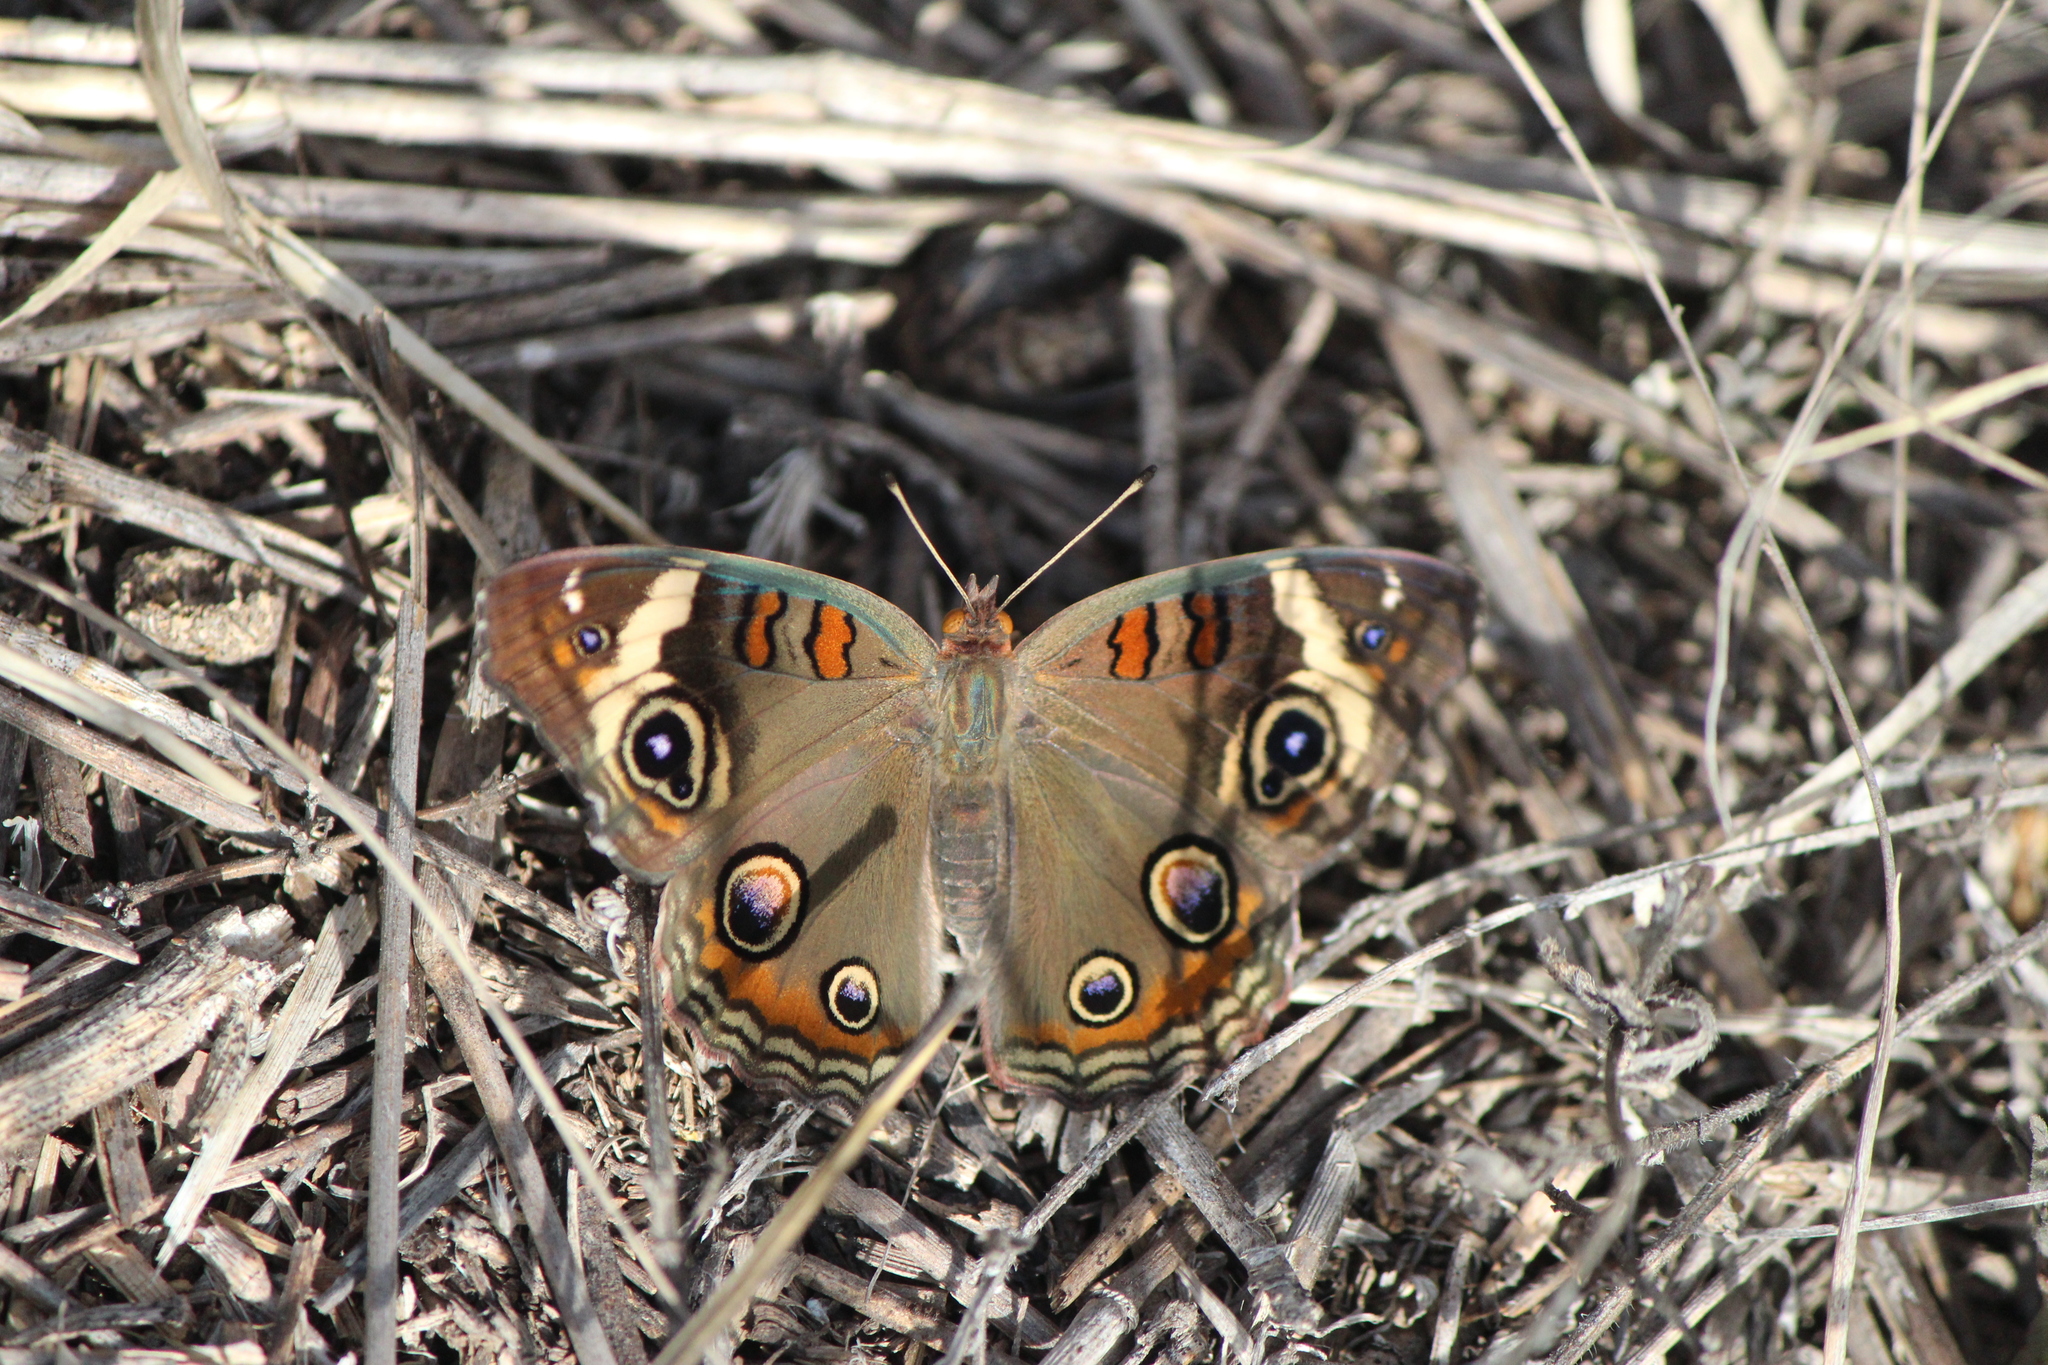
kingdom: Animalia
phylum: Arthropoda
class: Insecta
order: Lepidoptera
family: Nymphalidae
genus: Junonia
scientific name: Junonia coenia
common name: Common buckeye
